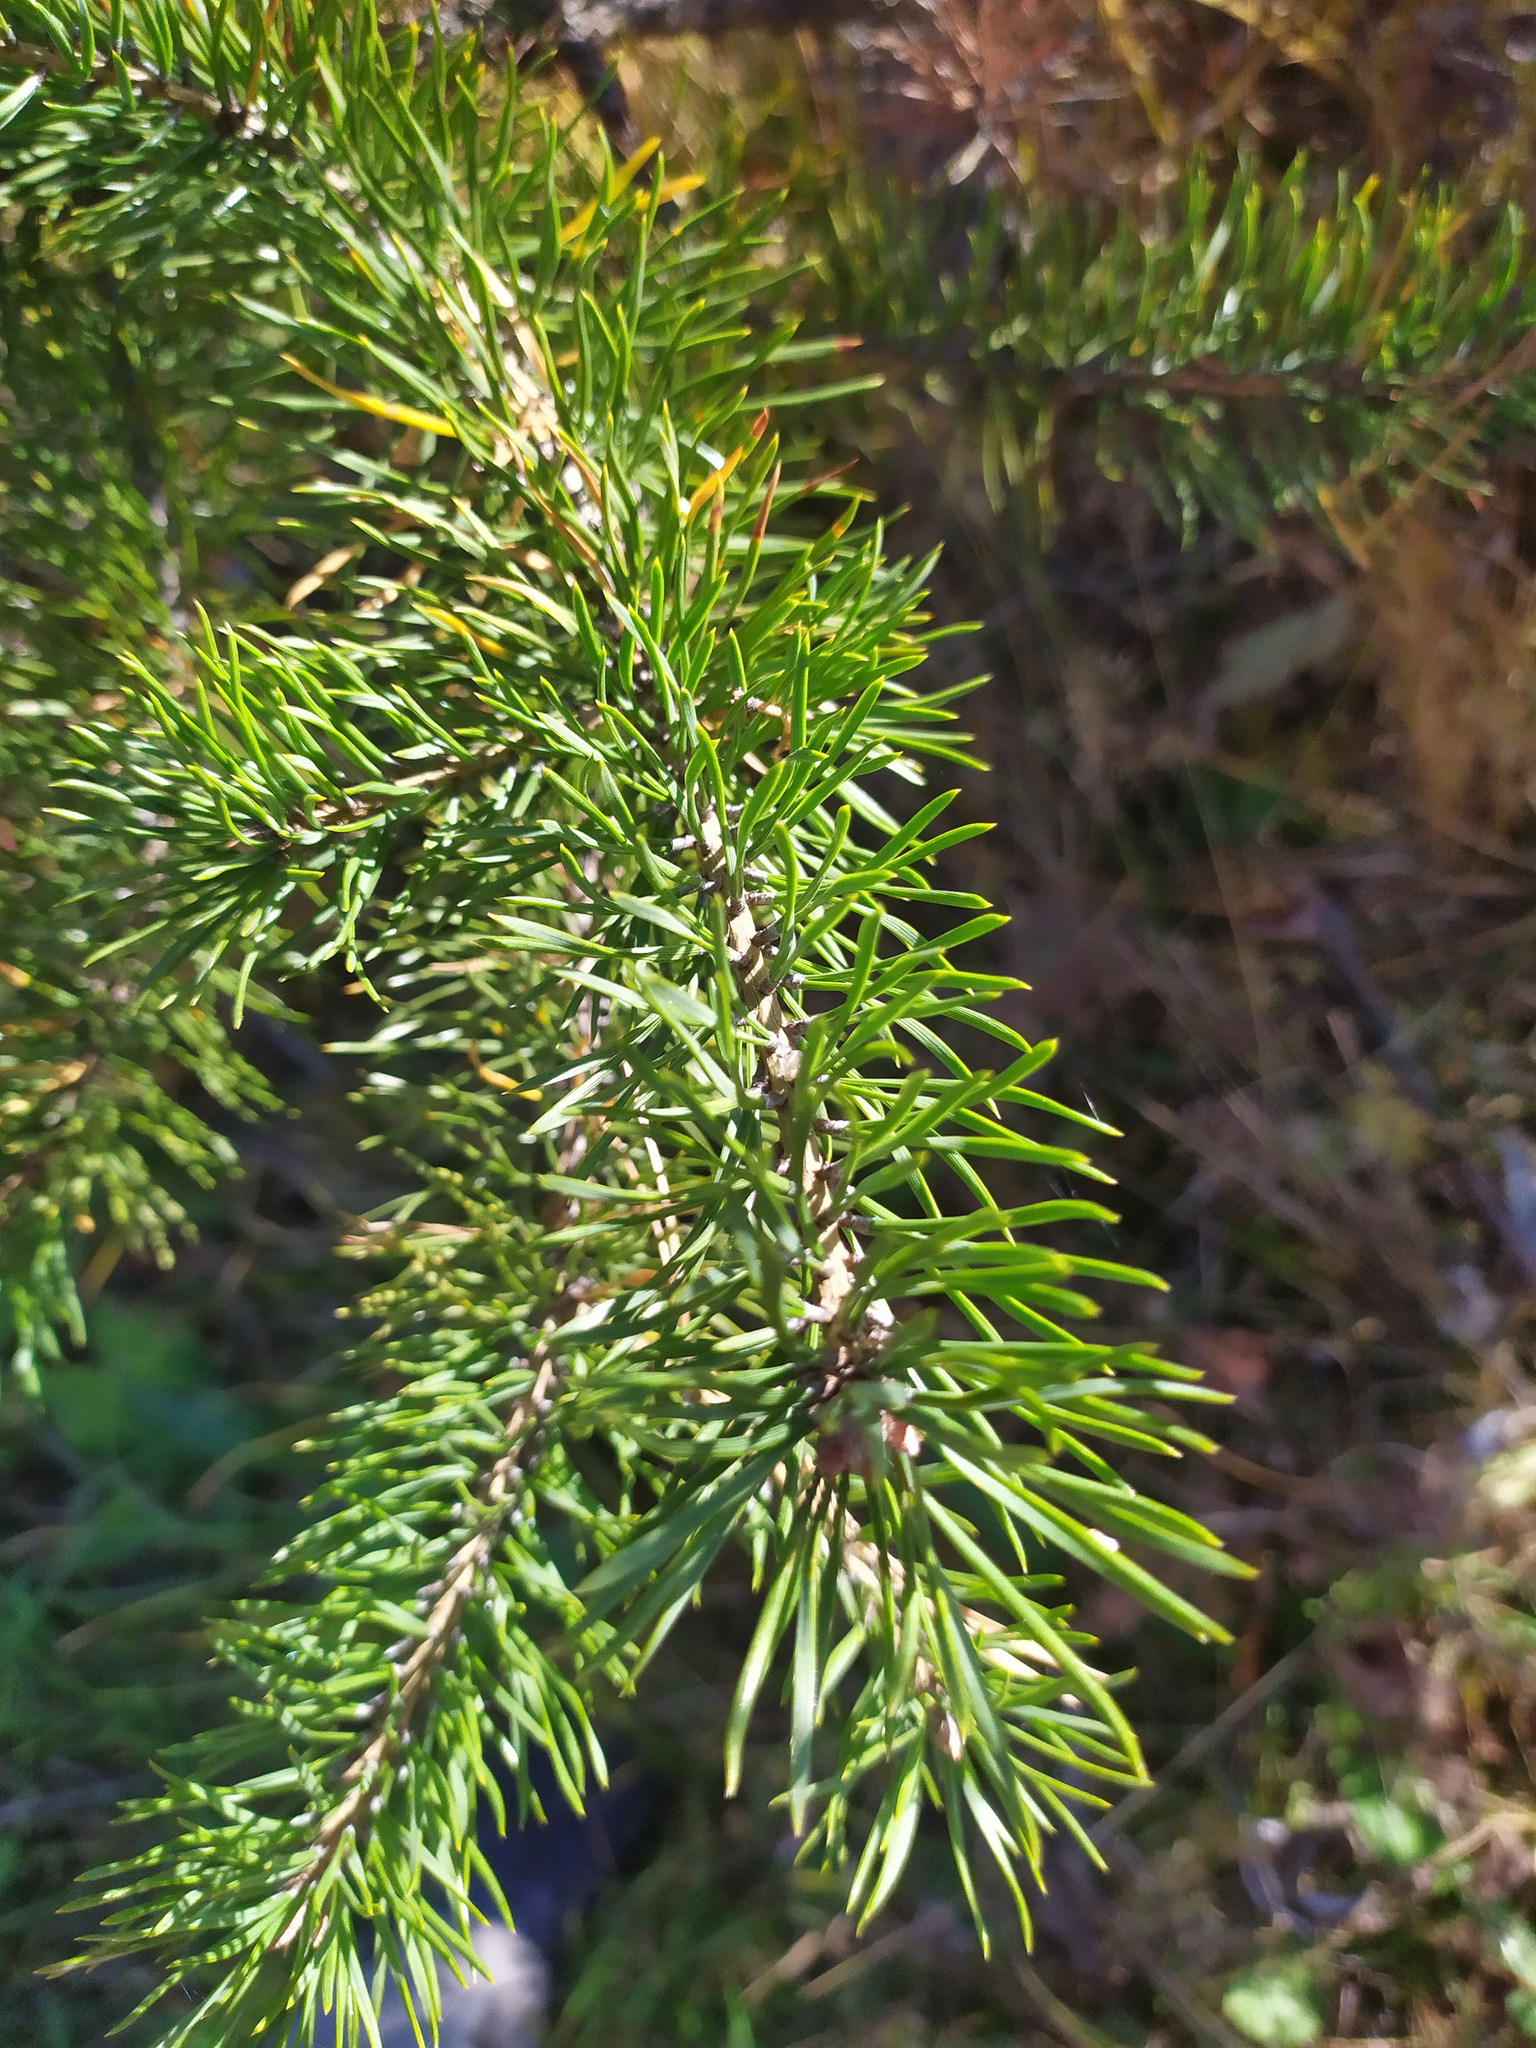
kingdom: Plantae
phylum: Tracheophyta
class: Pinopsida
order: Pinales
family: Pinaceae
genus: Pinus
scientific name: Pinus sylvestris
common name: Scots pine
